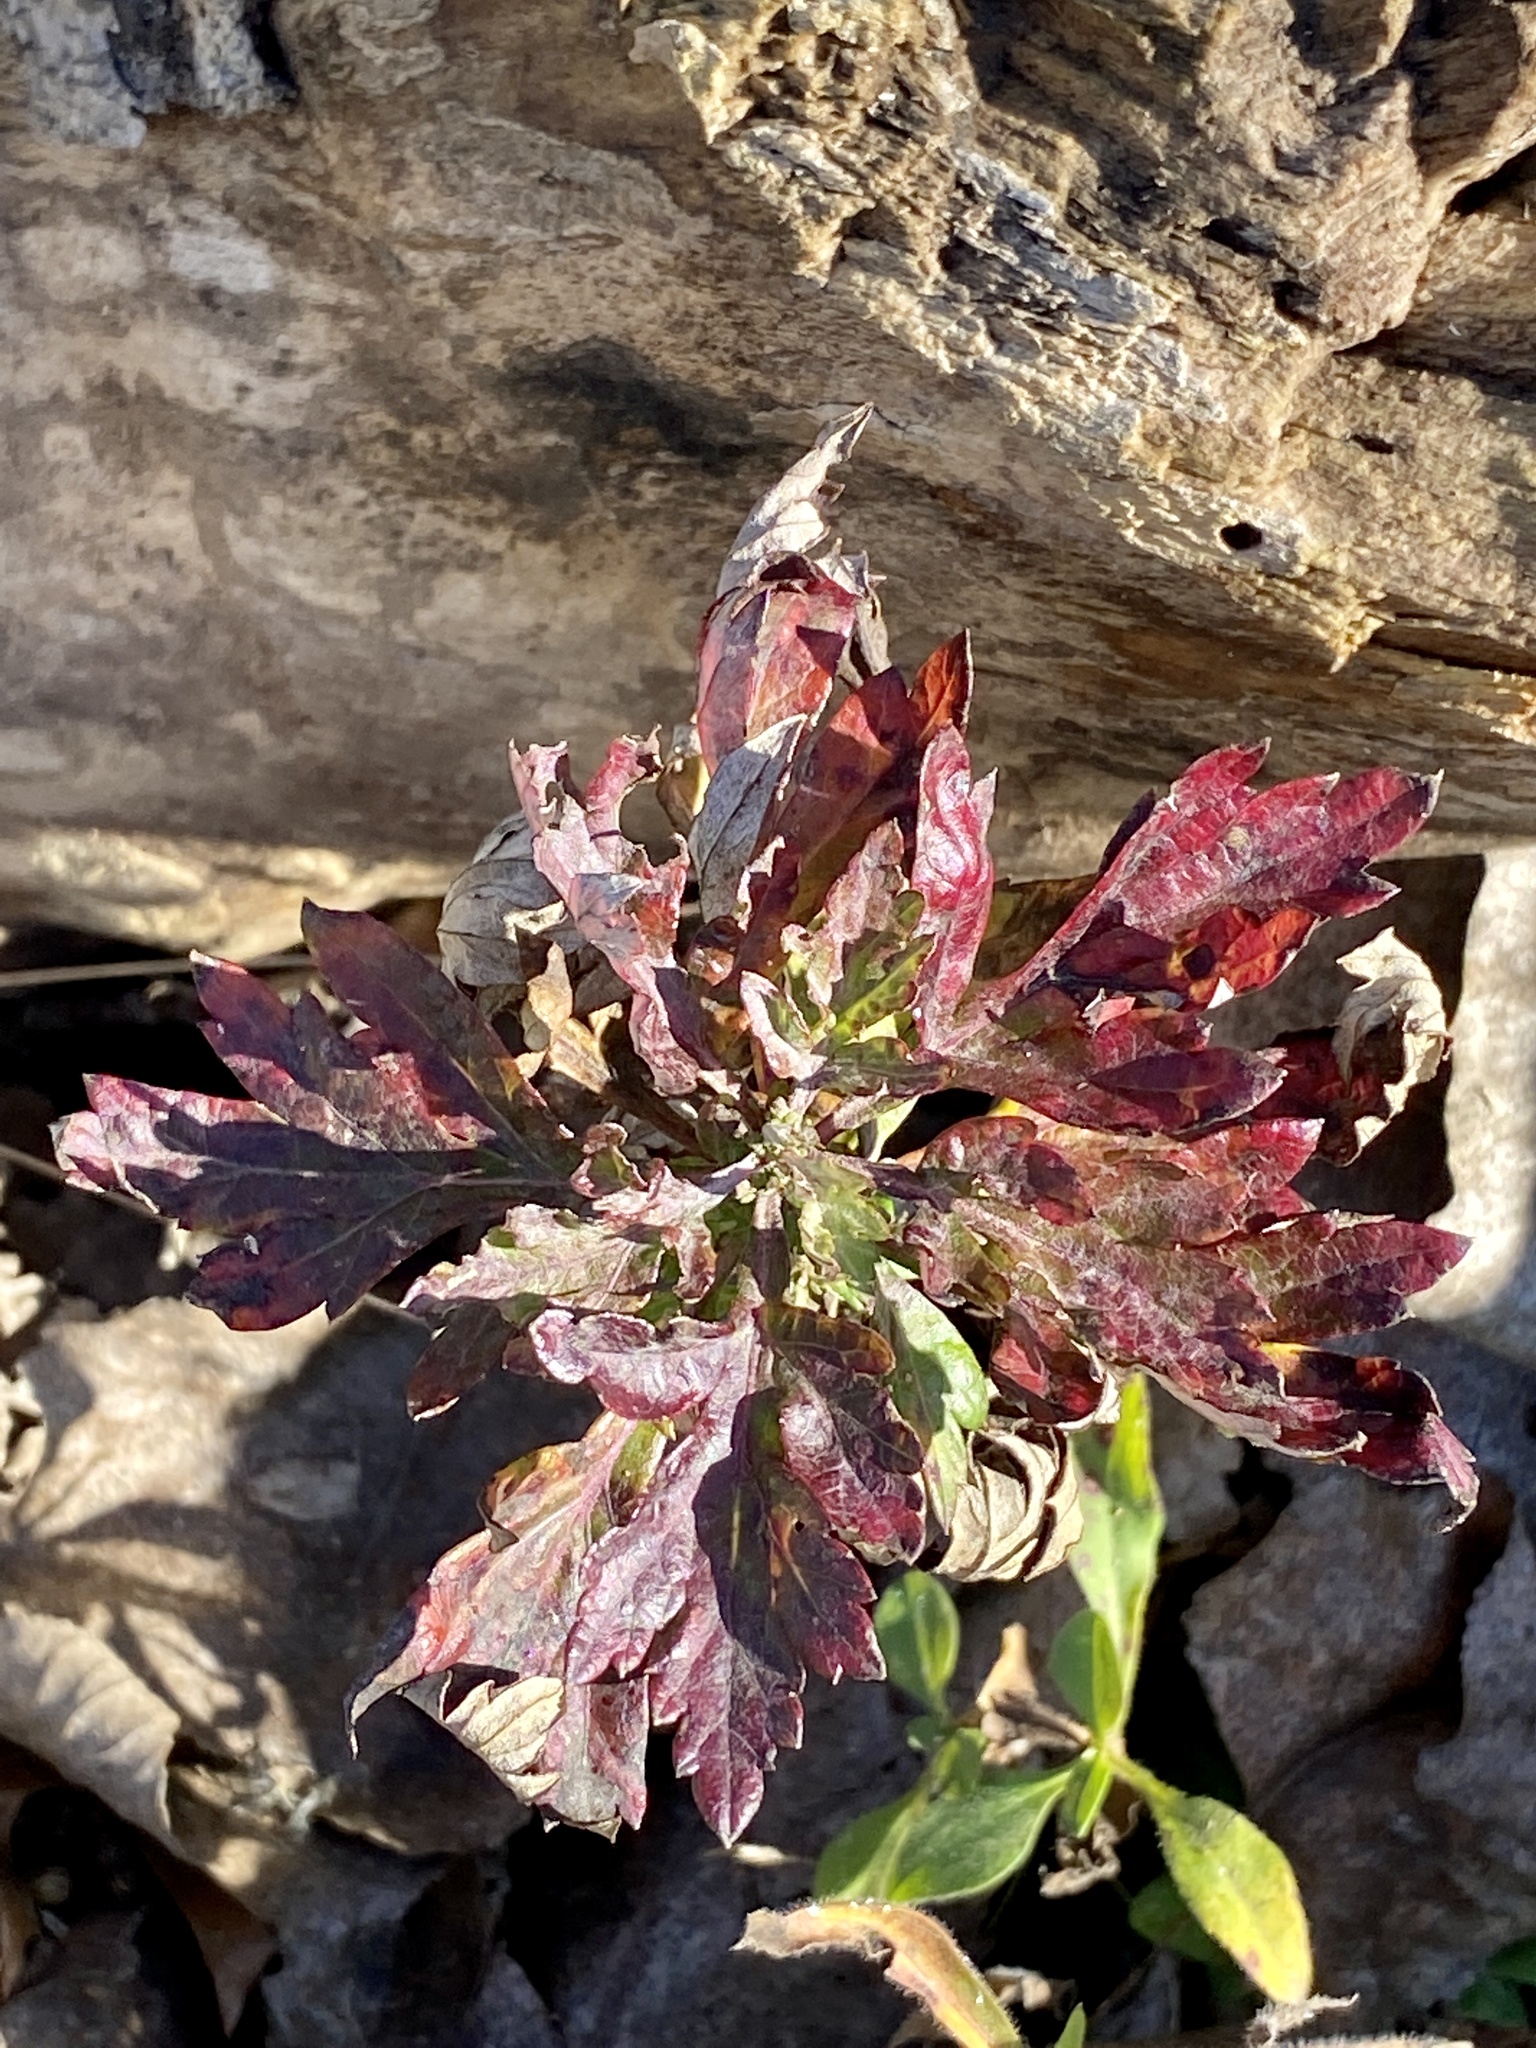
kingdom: Plantae
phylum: Tracheophyta
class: Magnoliopsida
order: Asterales
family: Asteraceae
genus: Artemisia
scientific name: Artemisia vulgaris
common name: Mugwort
